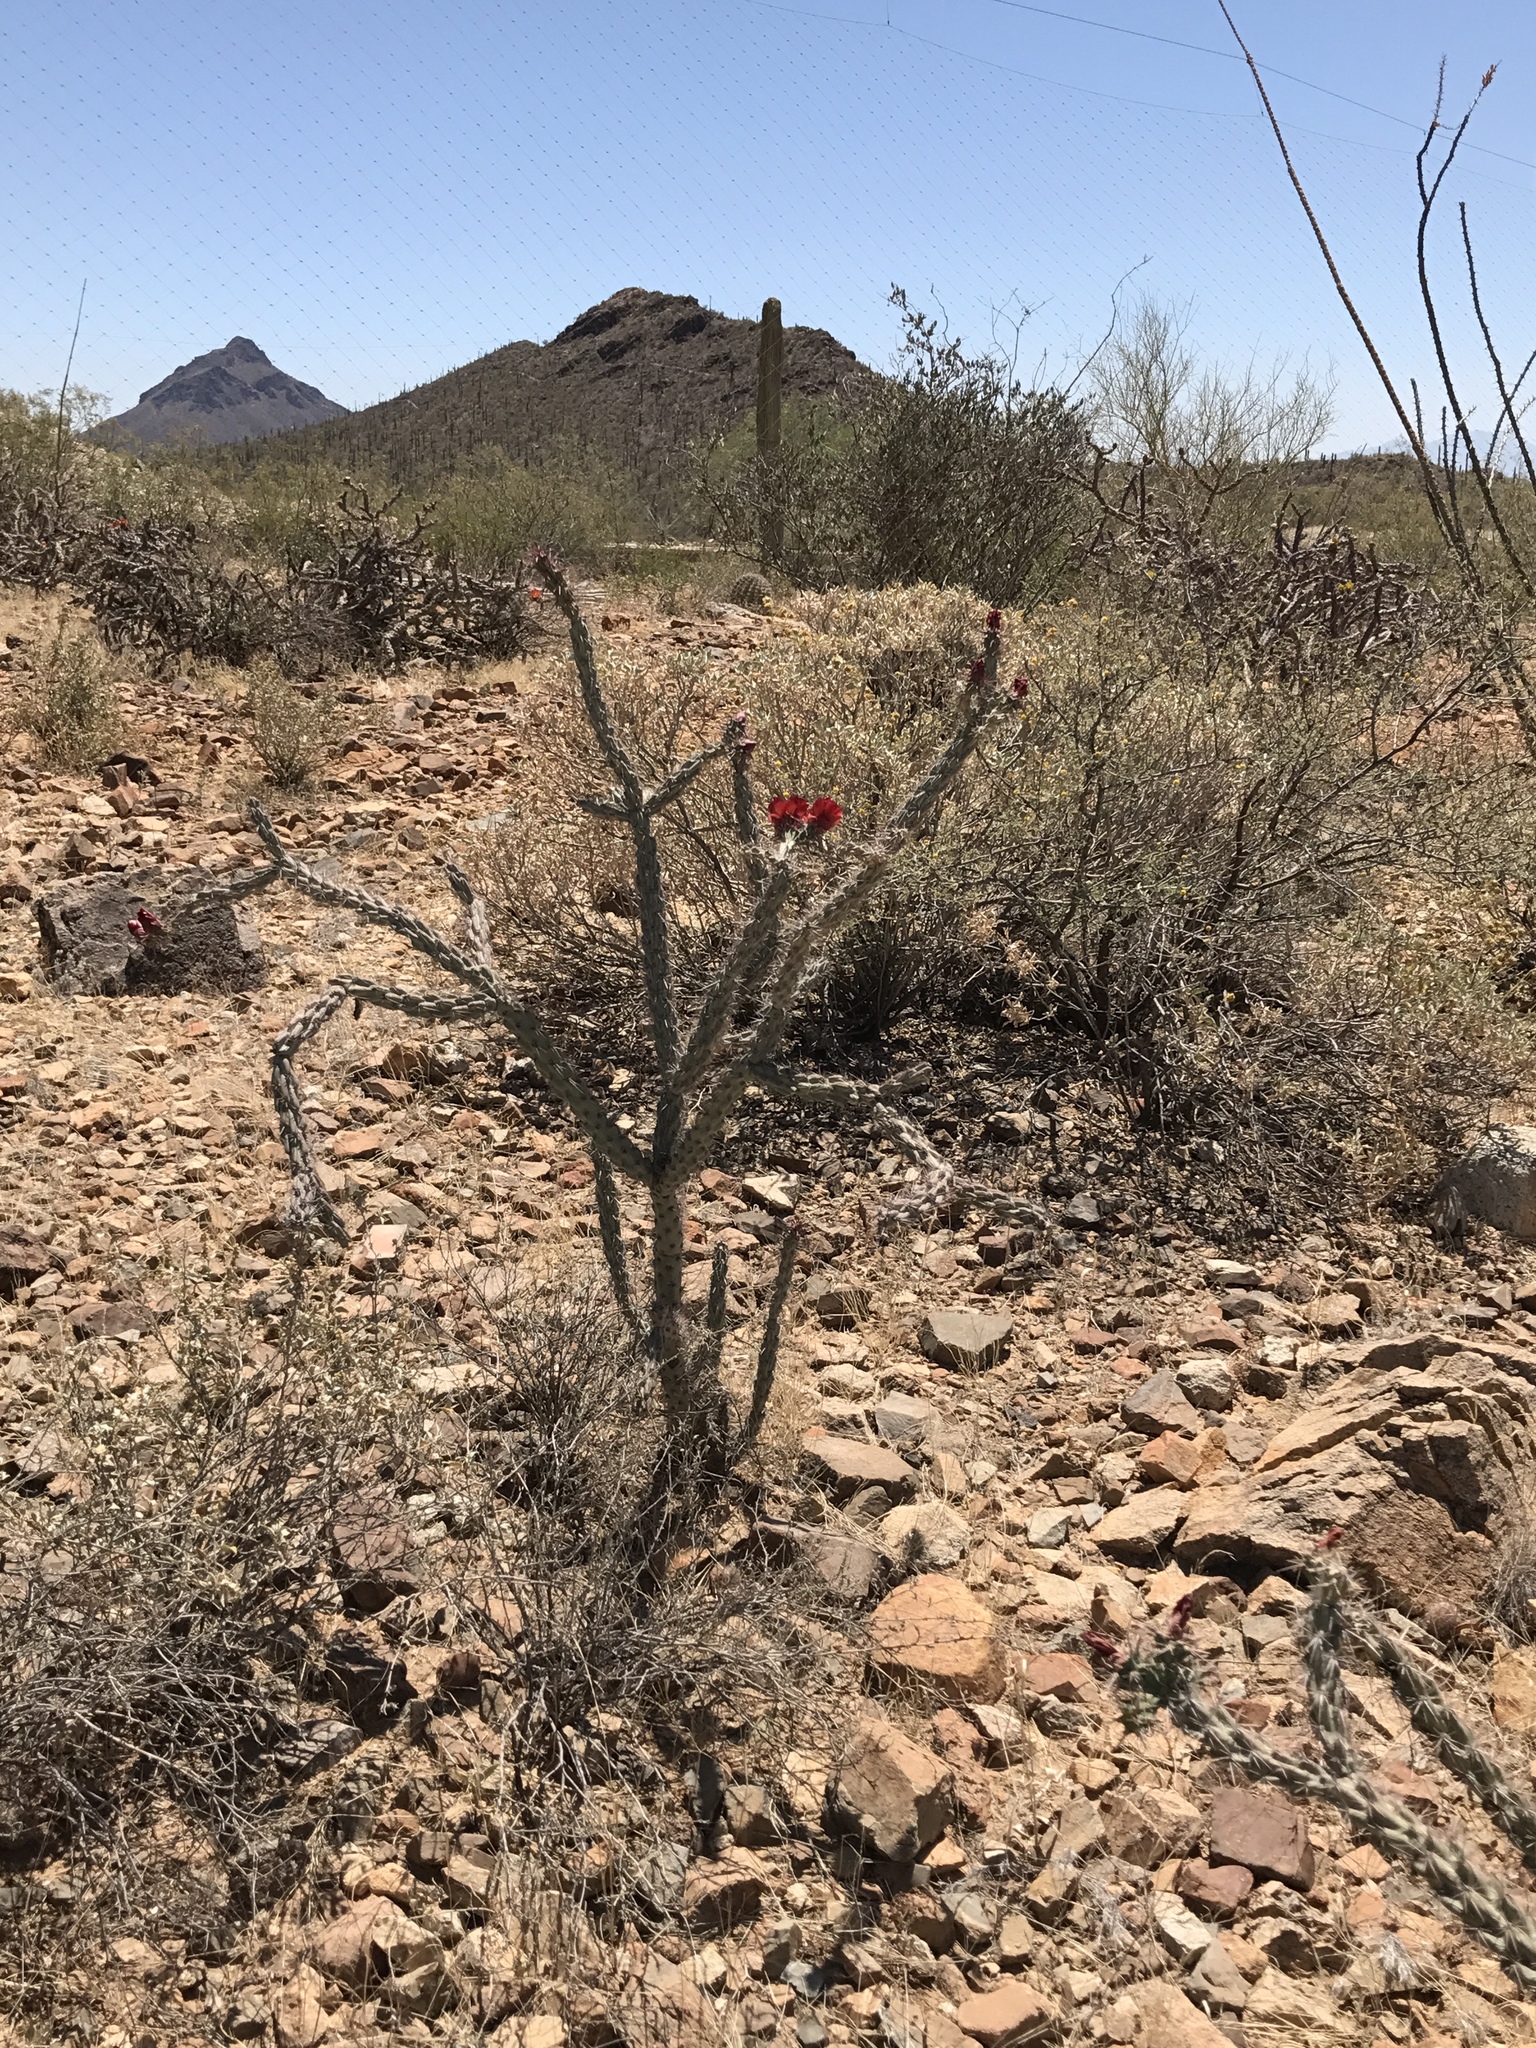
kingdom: Plantae
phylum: Tracheophyta
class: Magnoliopsida
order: Caryophyllales
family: Cactaceae
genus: Cylindropuntia
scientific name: Cylindropuntia thurberi
